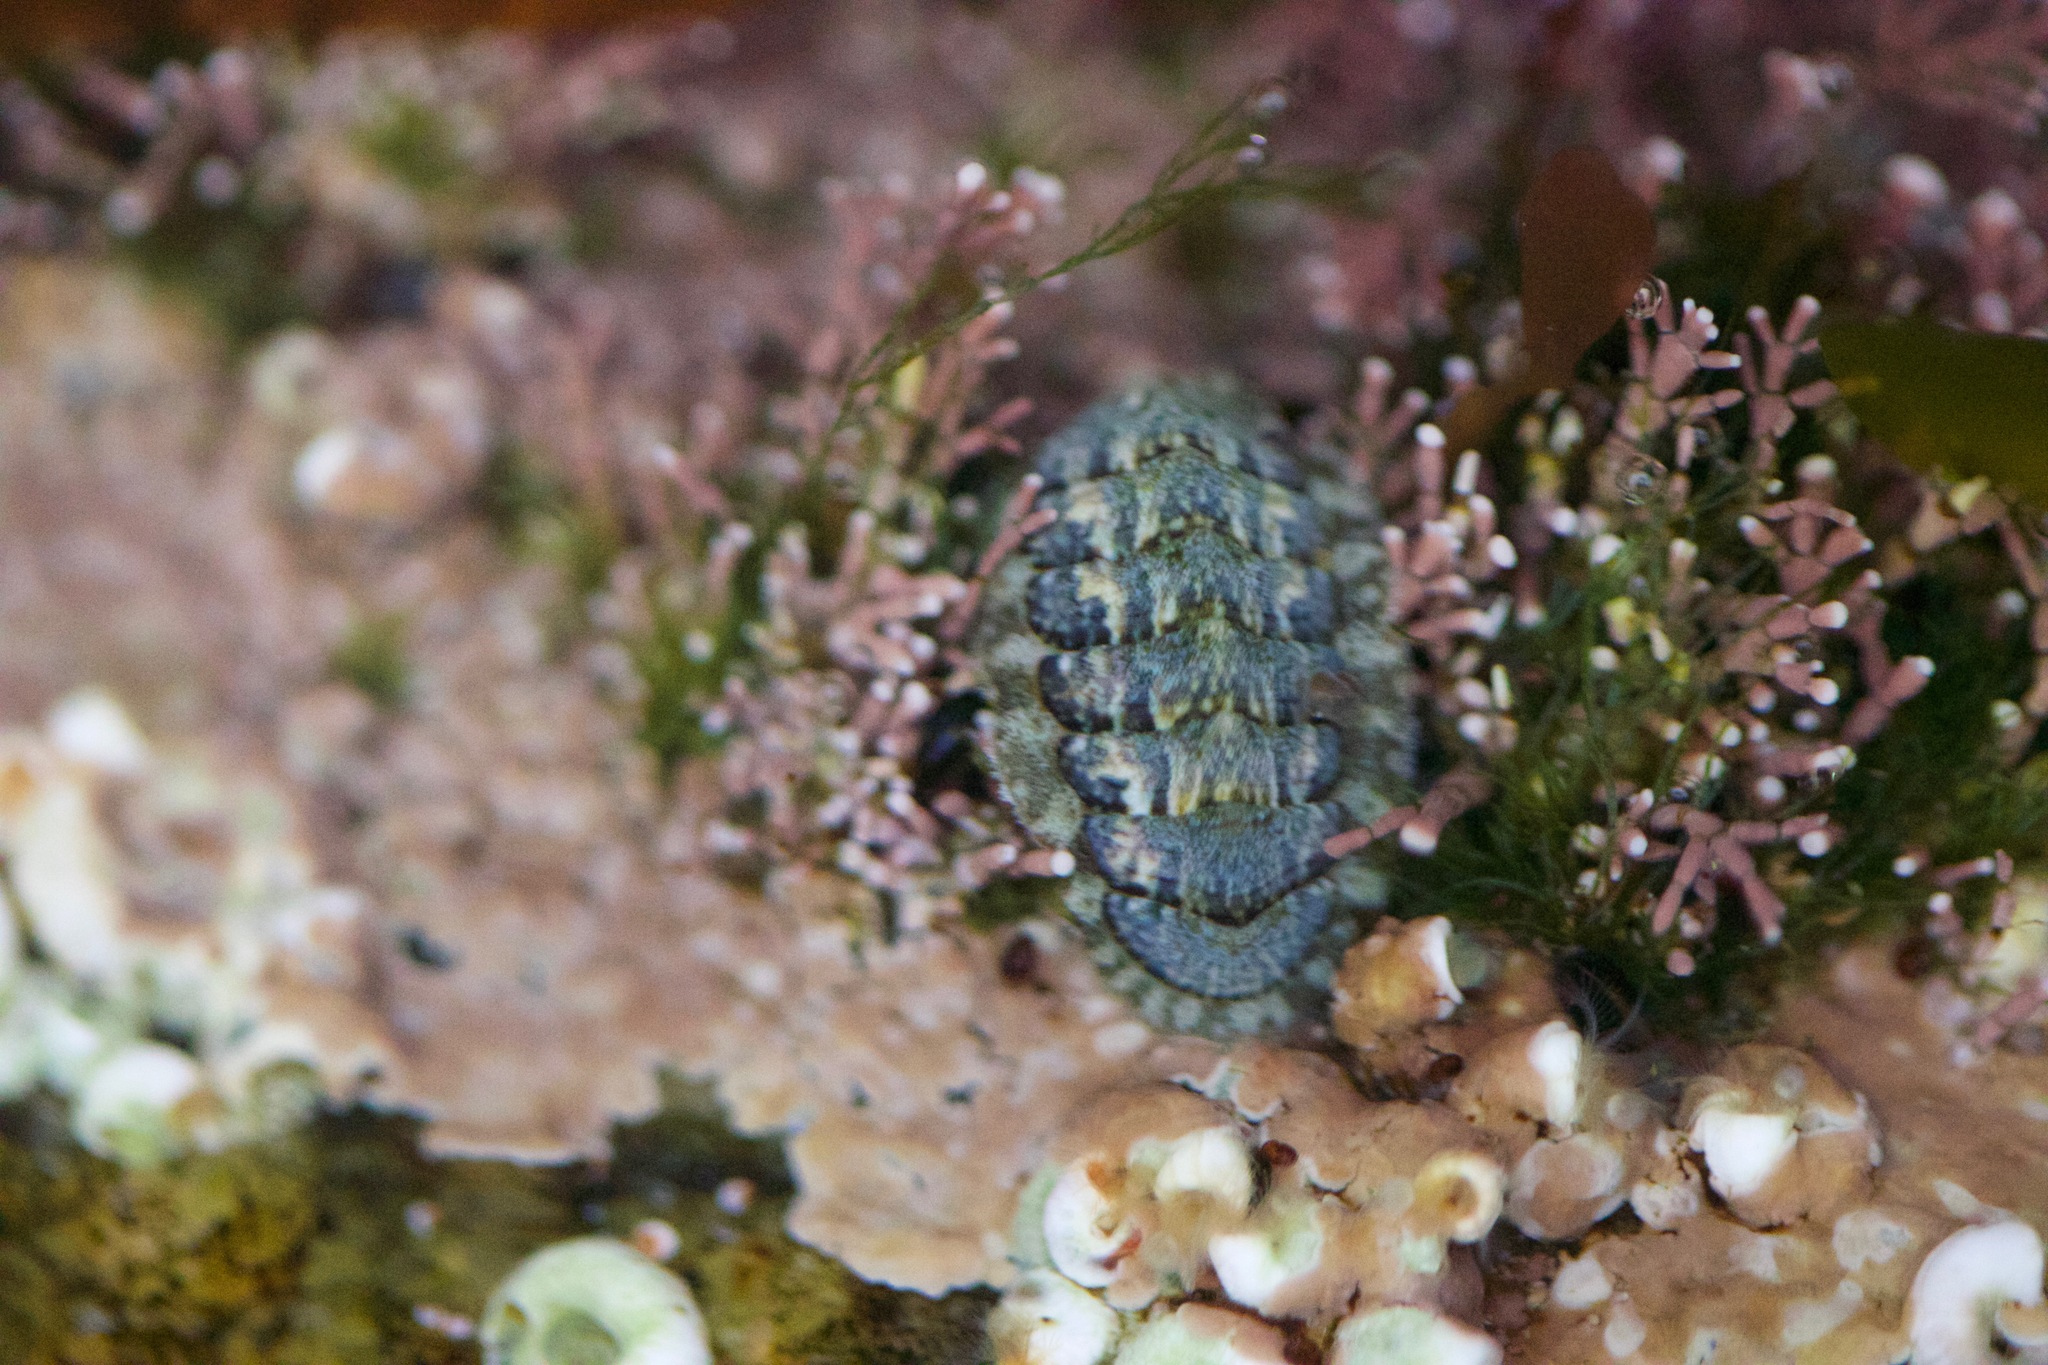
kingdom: Animalia
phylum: Mollusca
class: Polyplacophora
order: Chitonida
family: Tonicellidae
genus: Lepidochitona
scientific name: Lepidochitona cinerea
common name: Cinereous chiton
